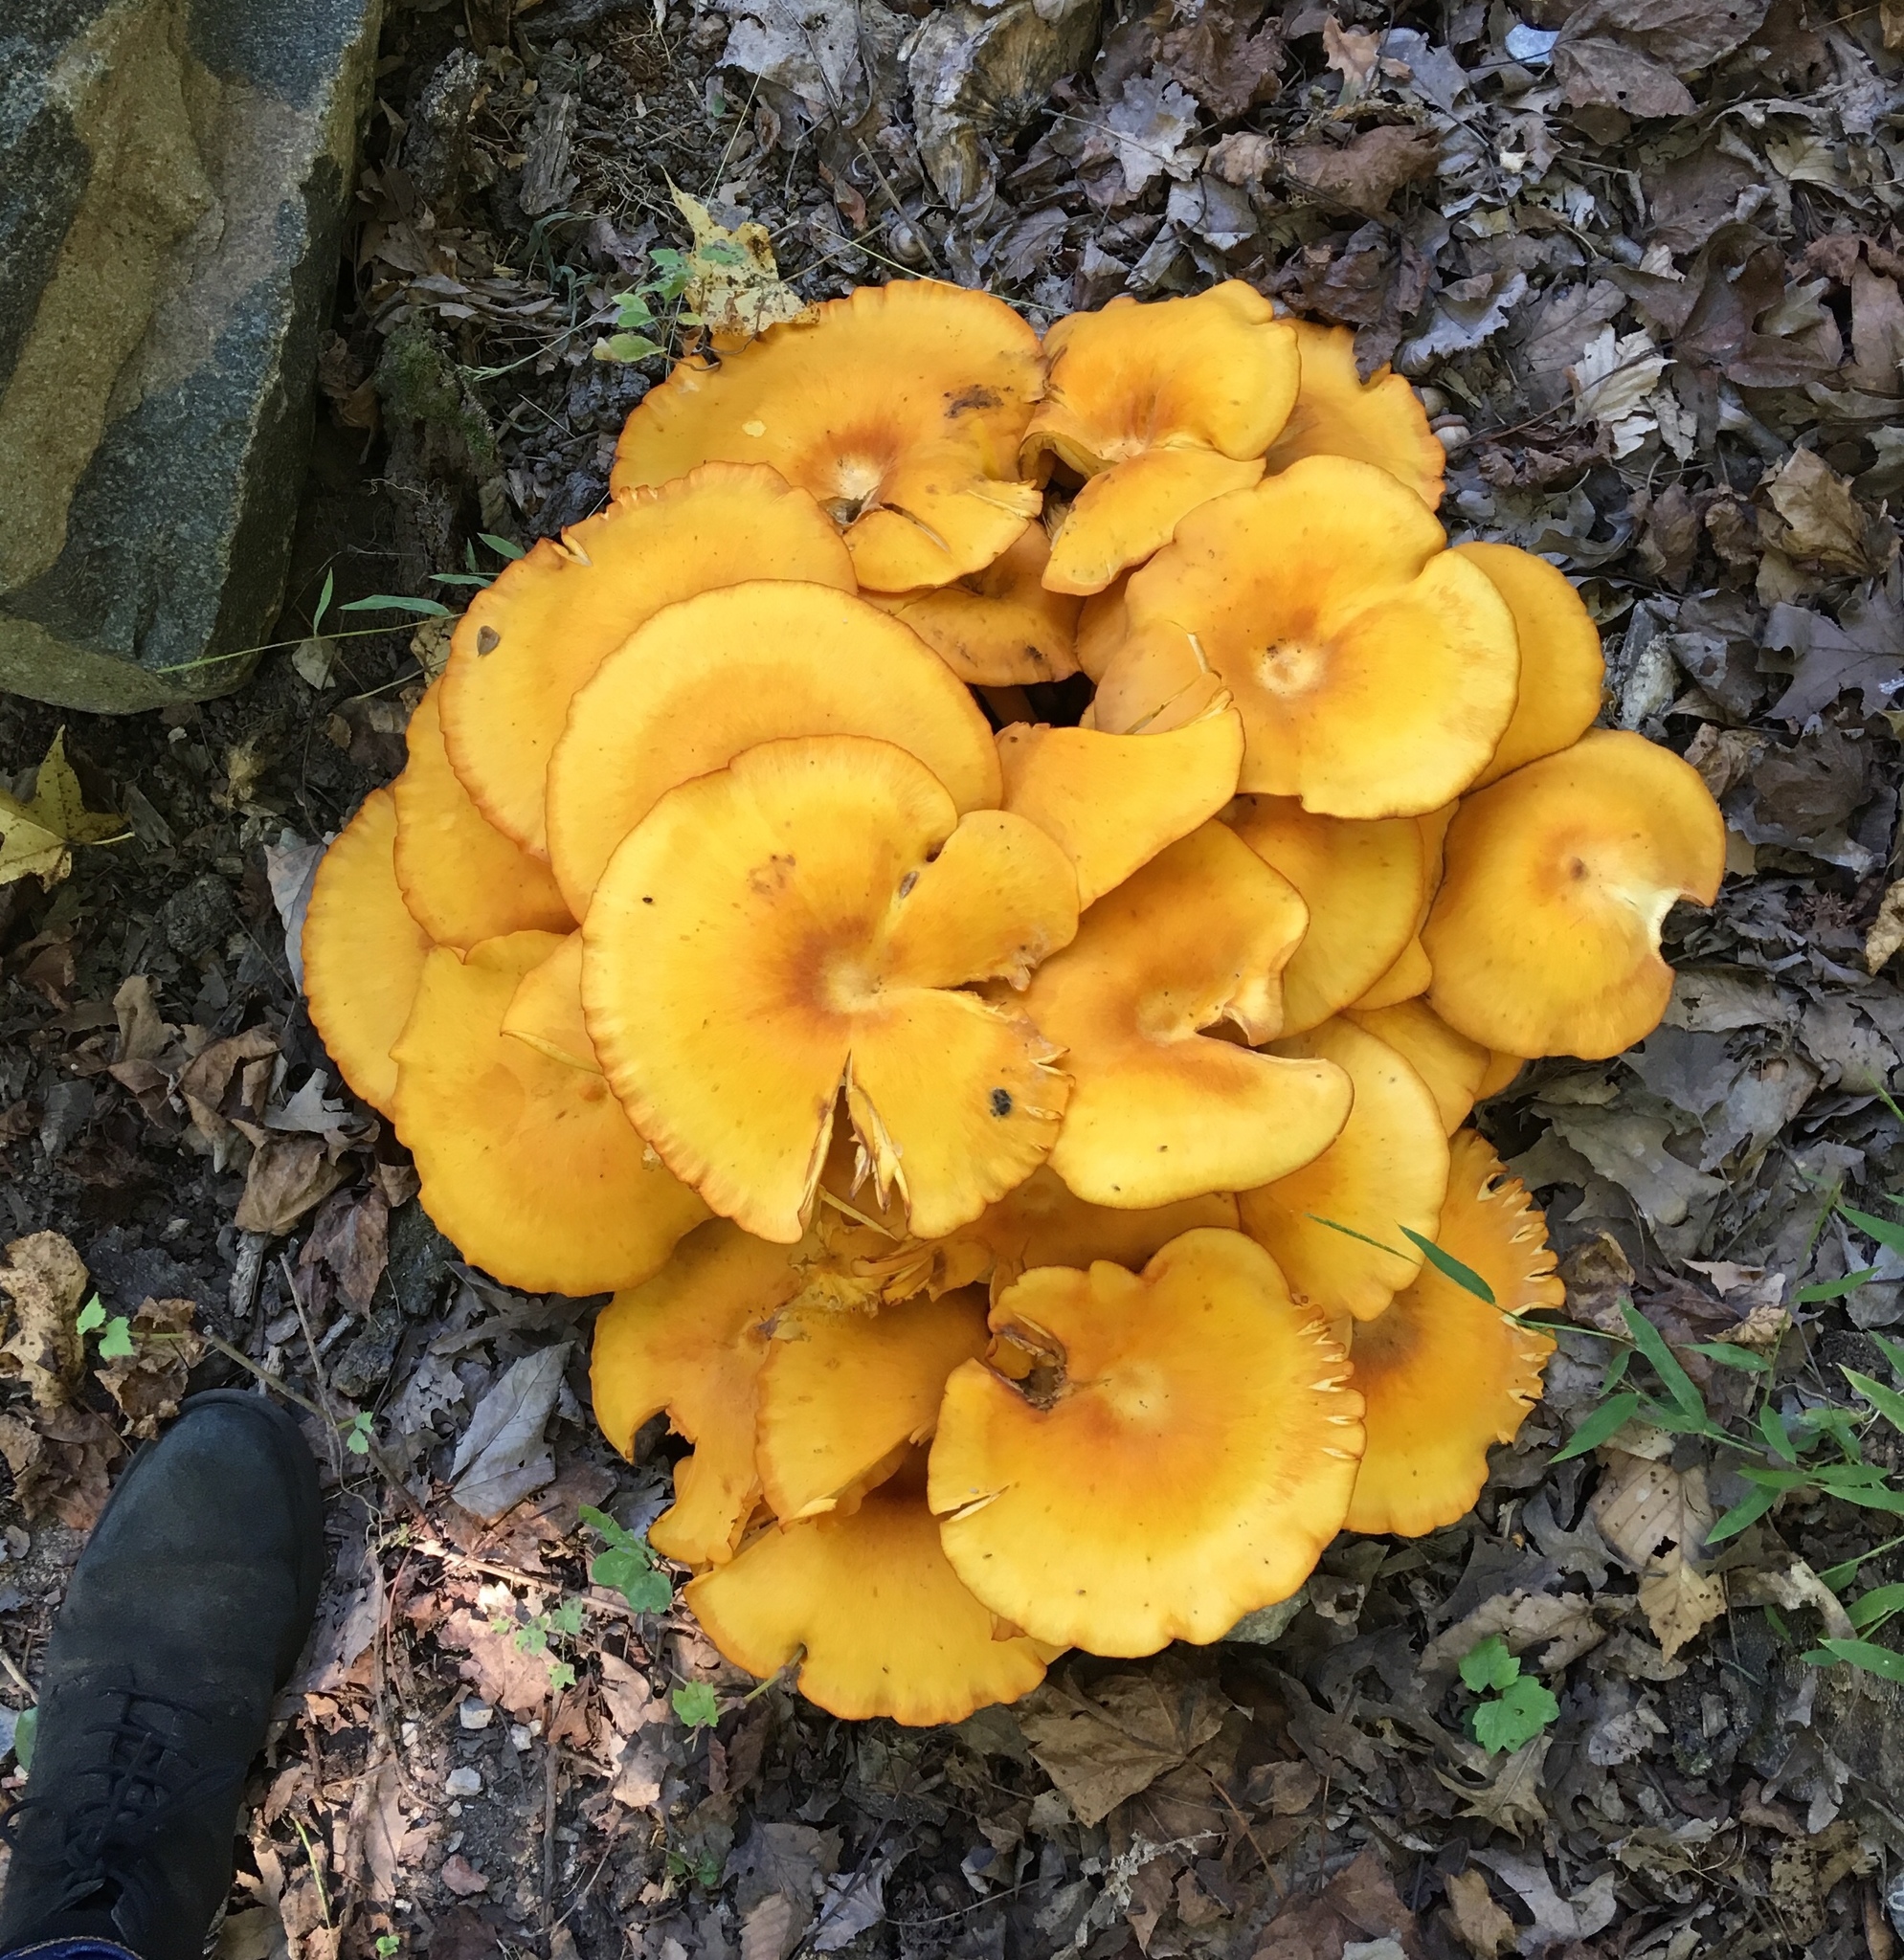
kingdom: Fungi
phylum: Basidiomycota
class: Agaricomycetes
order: Agaricales
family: Omphalotaceae
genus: Omphalotus
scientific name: Omphalotus illudens
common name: Jack o lantern
